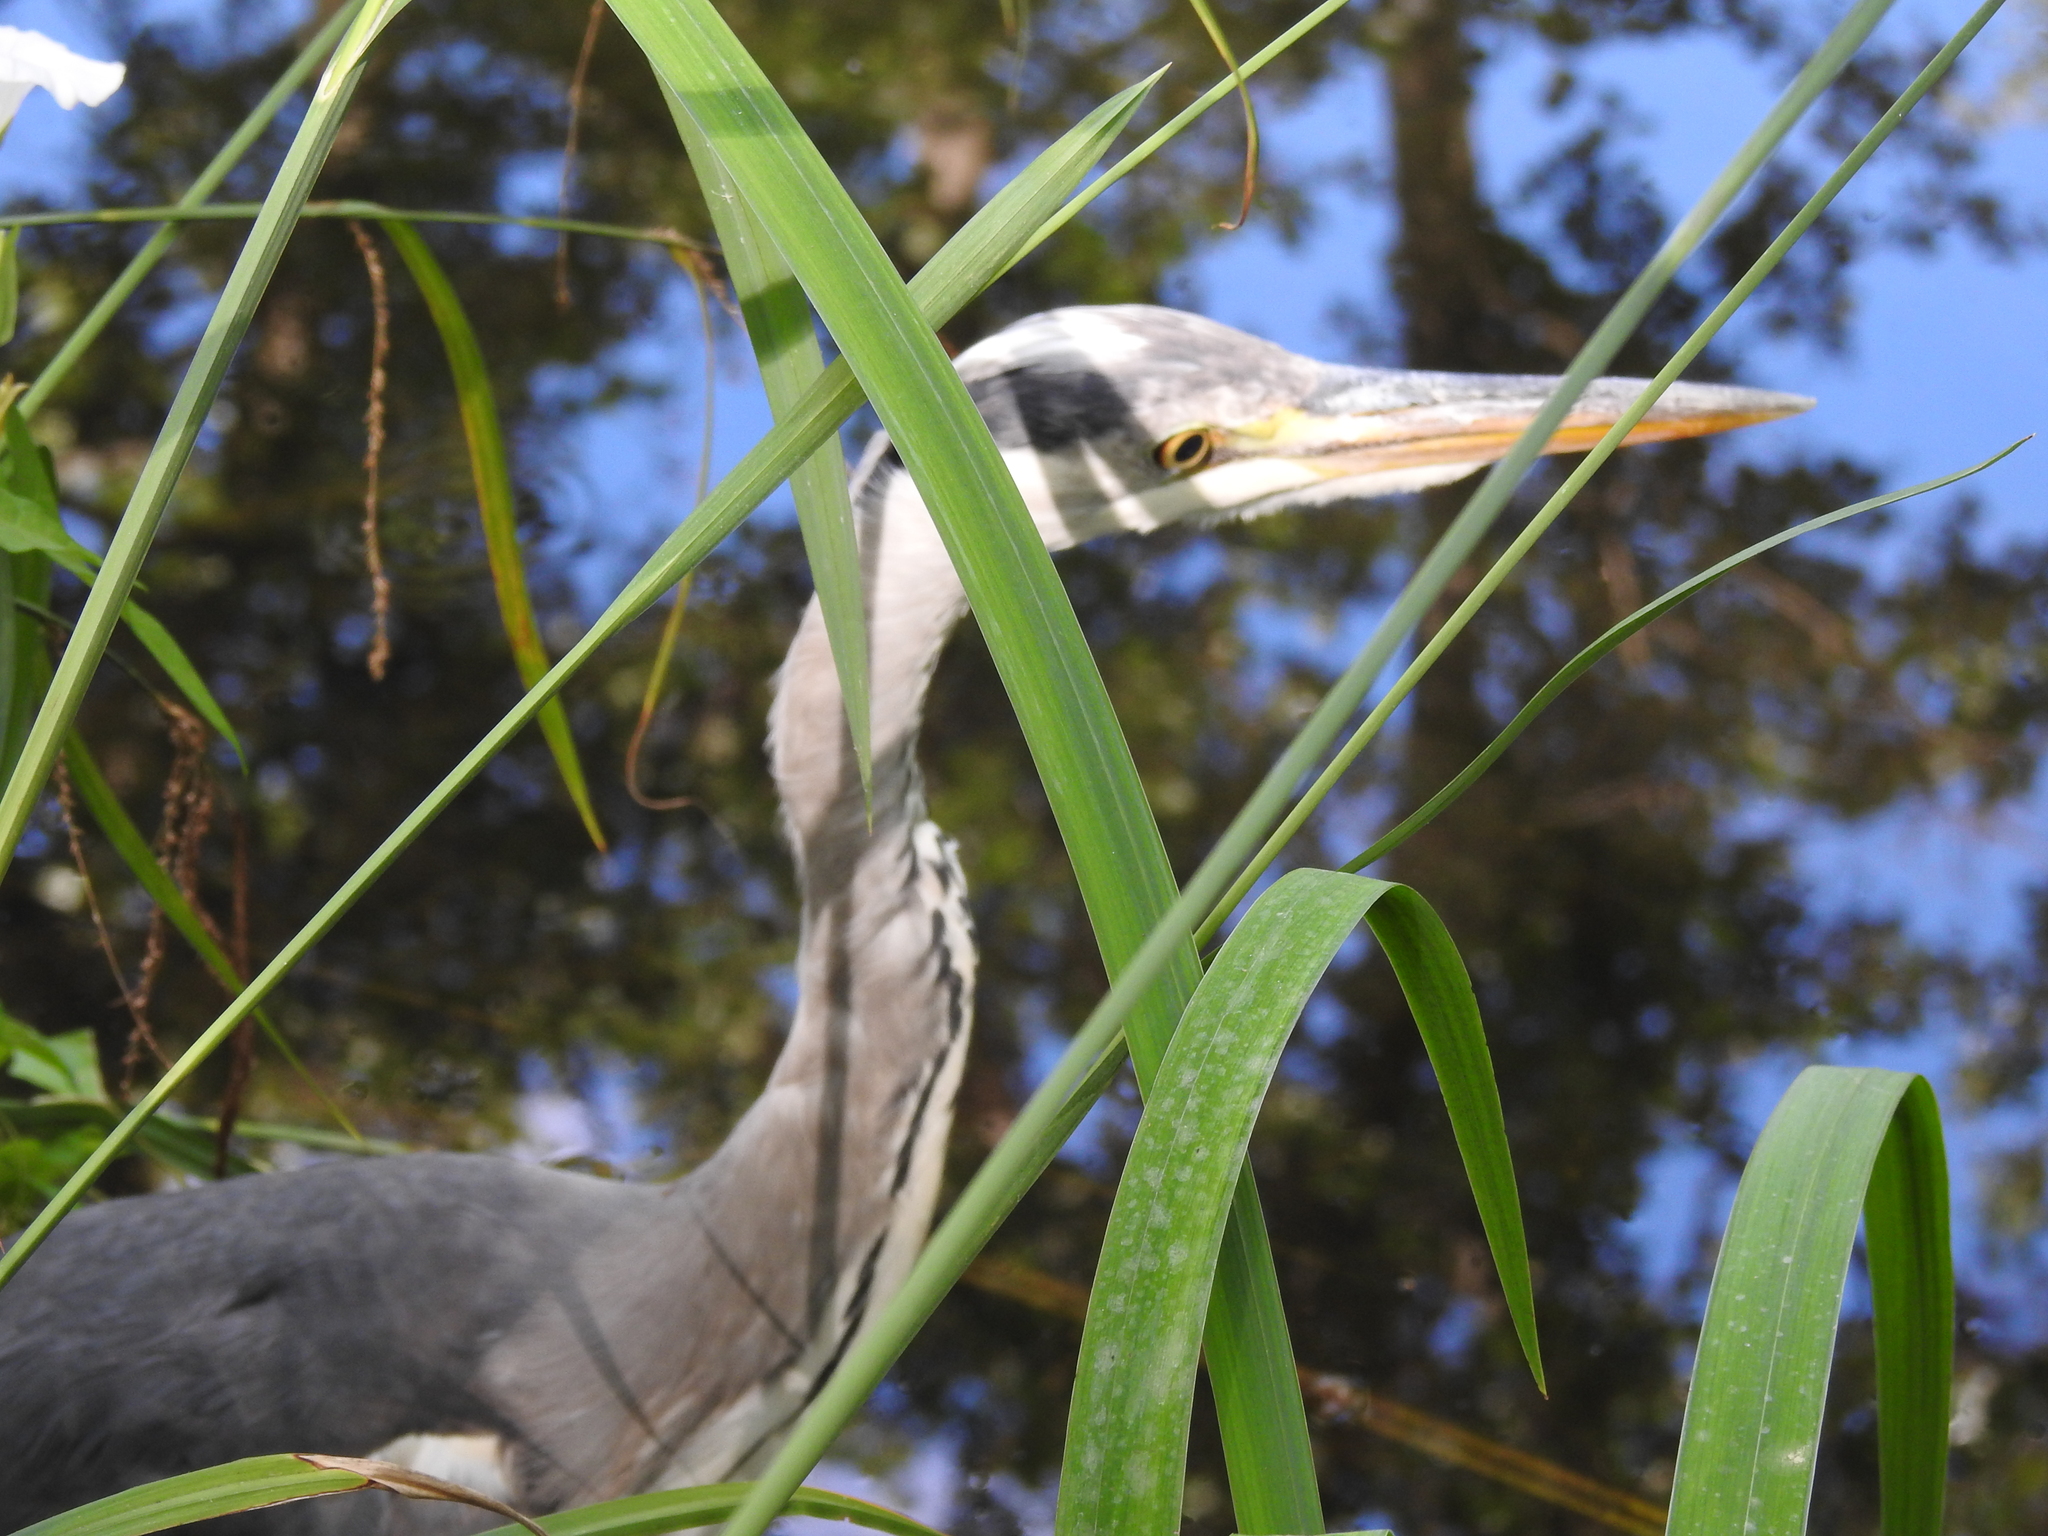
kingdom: Animalia
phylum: Chordata
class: Aves
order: Pelecaniformes
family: Ardeidae
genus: Ardea
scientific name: Ardea cinerea
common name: Grey heron
